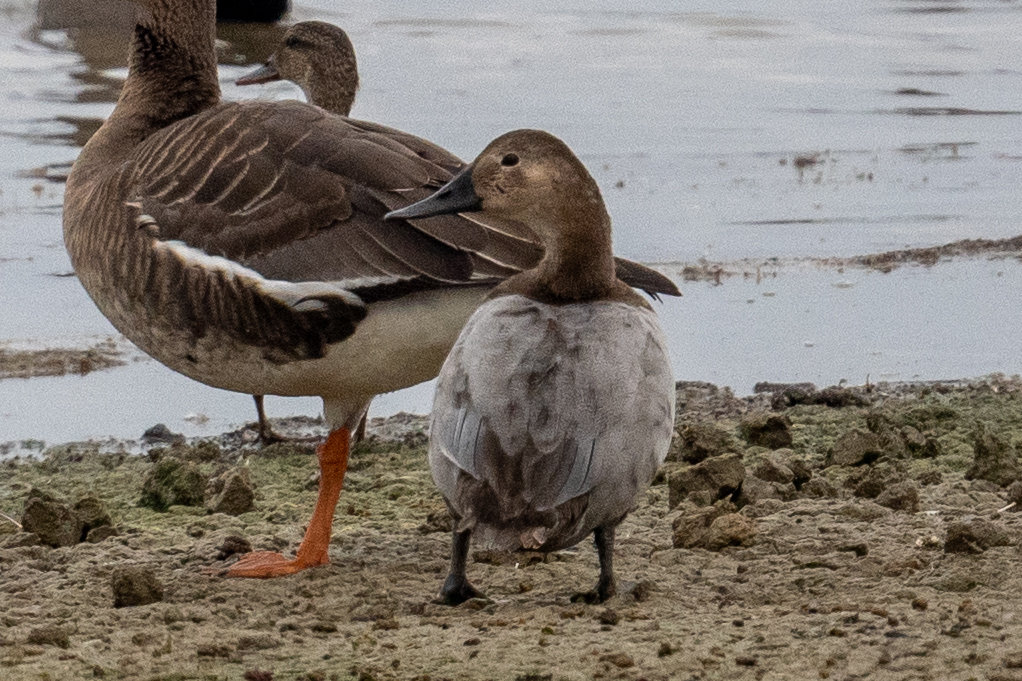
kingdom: Animalia
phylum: Chordata
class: Aves
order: Anseriformes
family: Anatidae
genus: Aythya
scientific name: Aythya valisineria
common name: Canvasback
